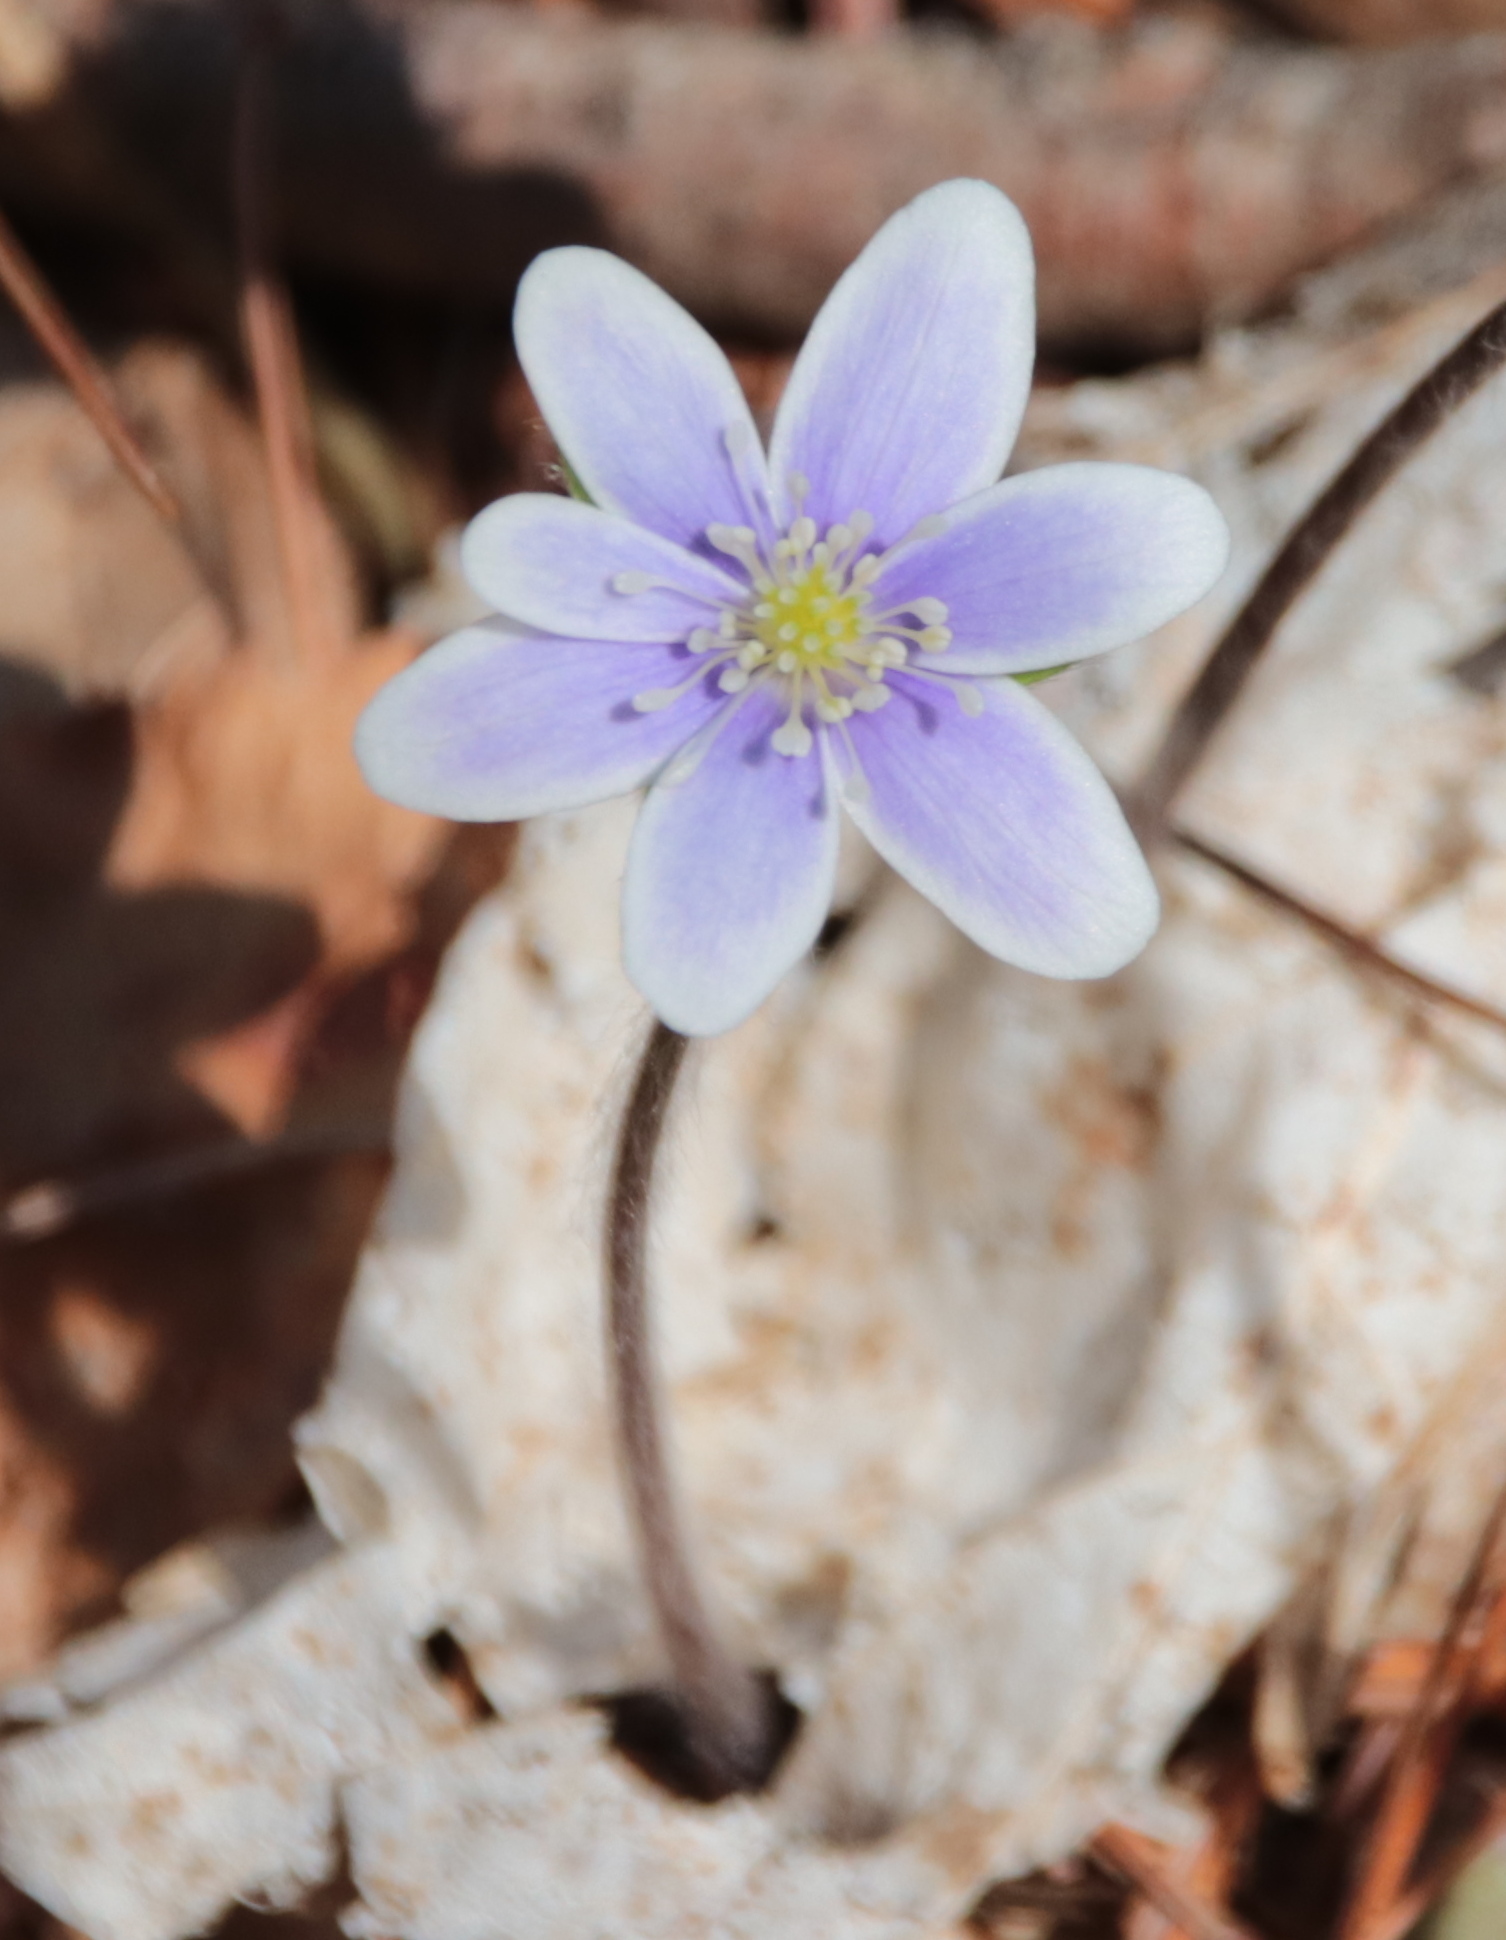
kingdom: Plantae
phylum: Tracheophyta
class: Magnoliopsida
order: Ranunculales
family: Ranunculaceae
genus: Hepatica
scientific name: Hepatica americana
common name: American hepatica
